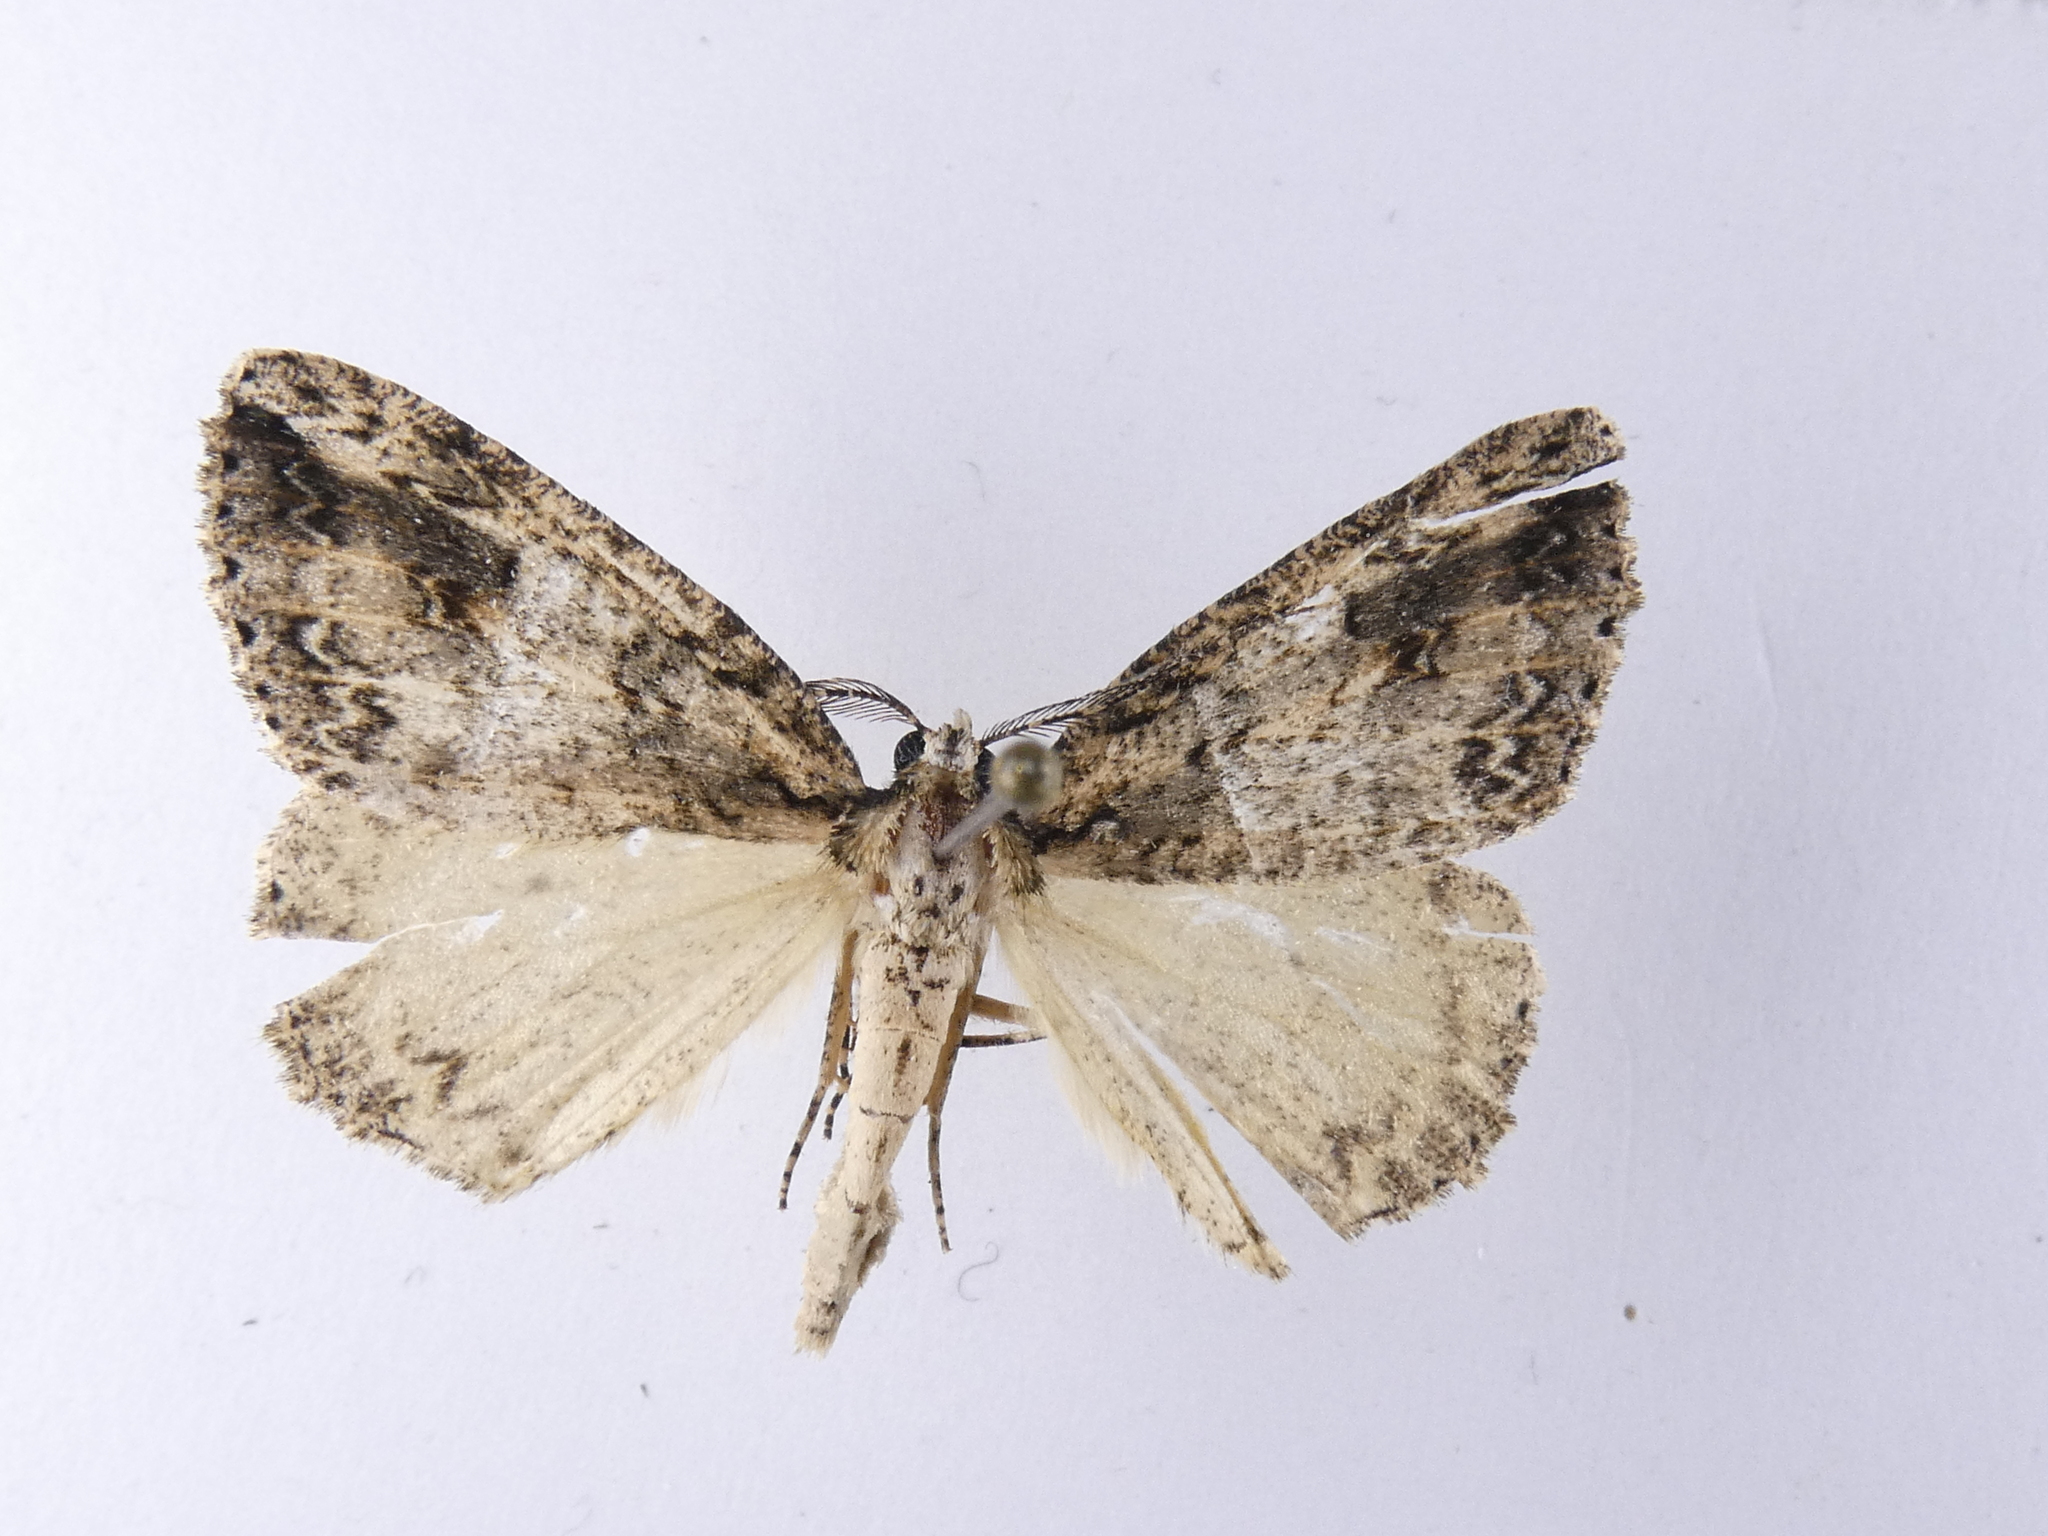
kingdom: Animalia
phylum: Arthropoda
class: Insecta
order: Lepidoptera
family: Geometridae
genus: Pseudocoremia
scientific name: Pseudocoremia rudisata
